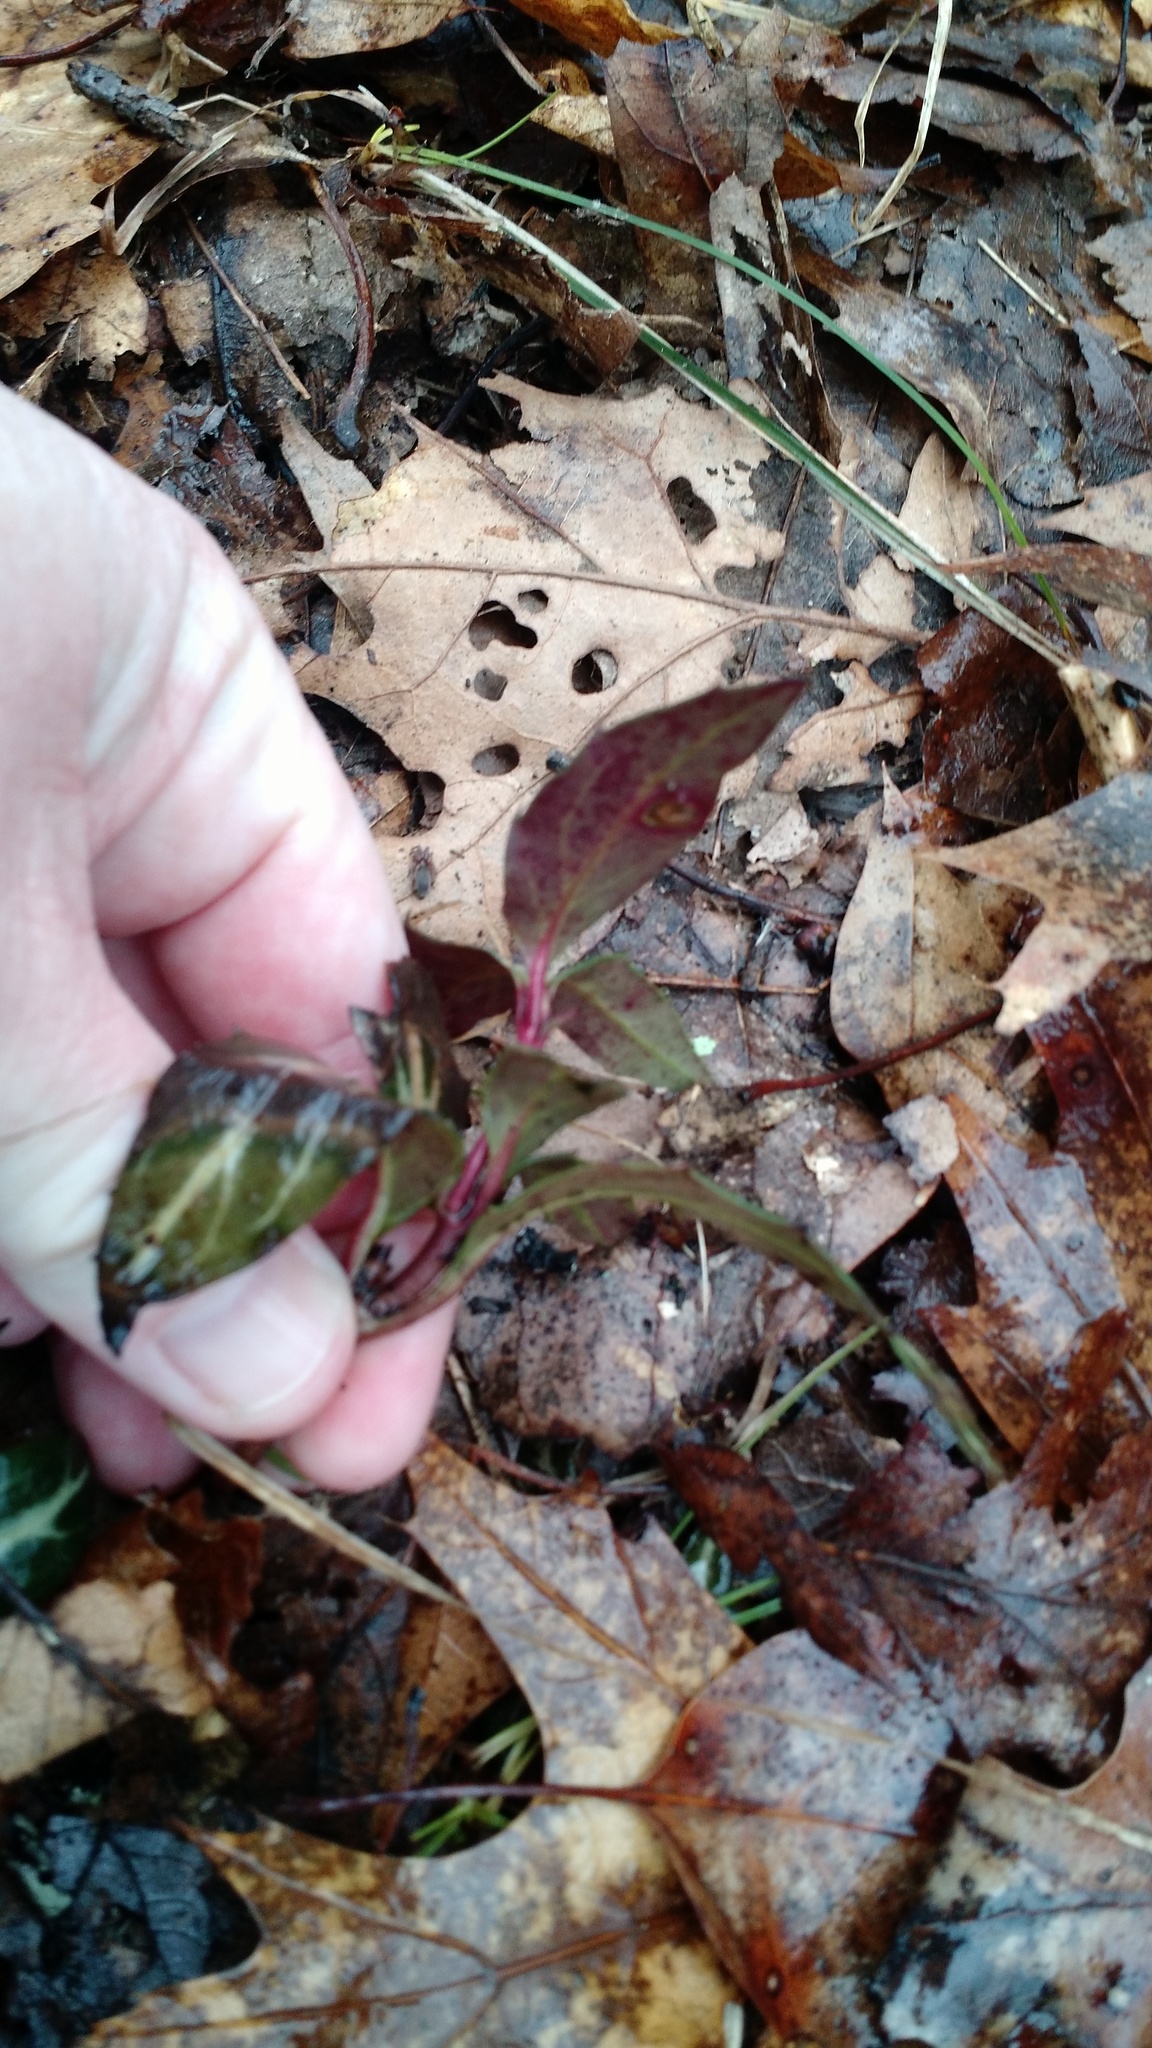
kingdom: Plantae
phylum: Tracheophyta
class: Magnoliopsida
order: Ericales
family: Ericaceae
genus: Chimaphila
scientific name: Chimaphila maculata
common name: Spotted pipsissewa
